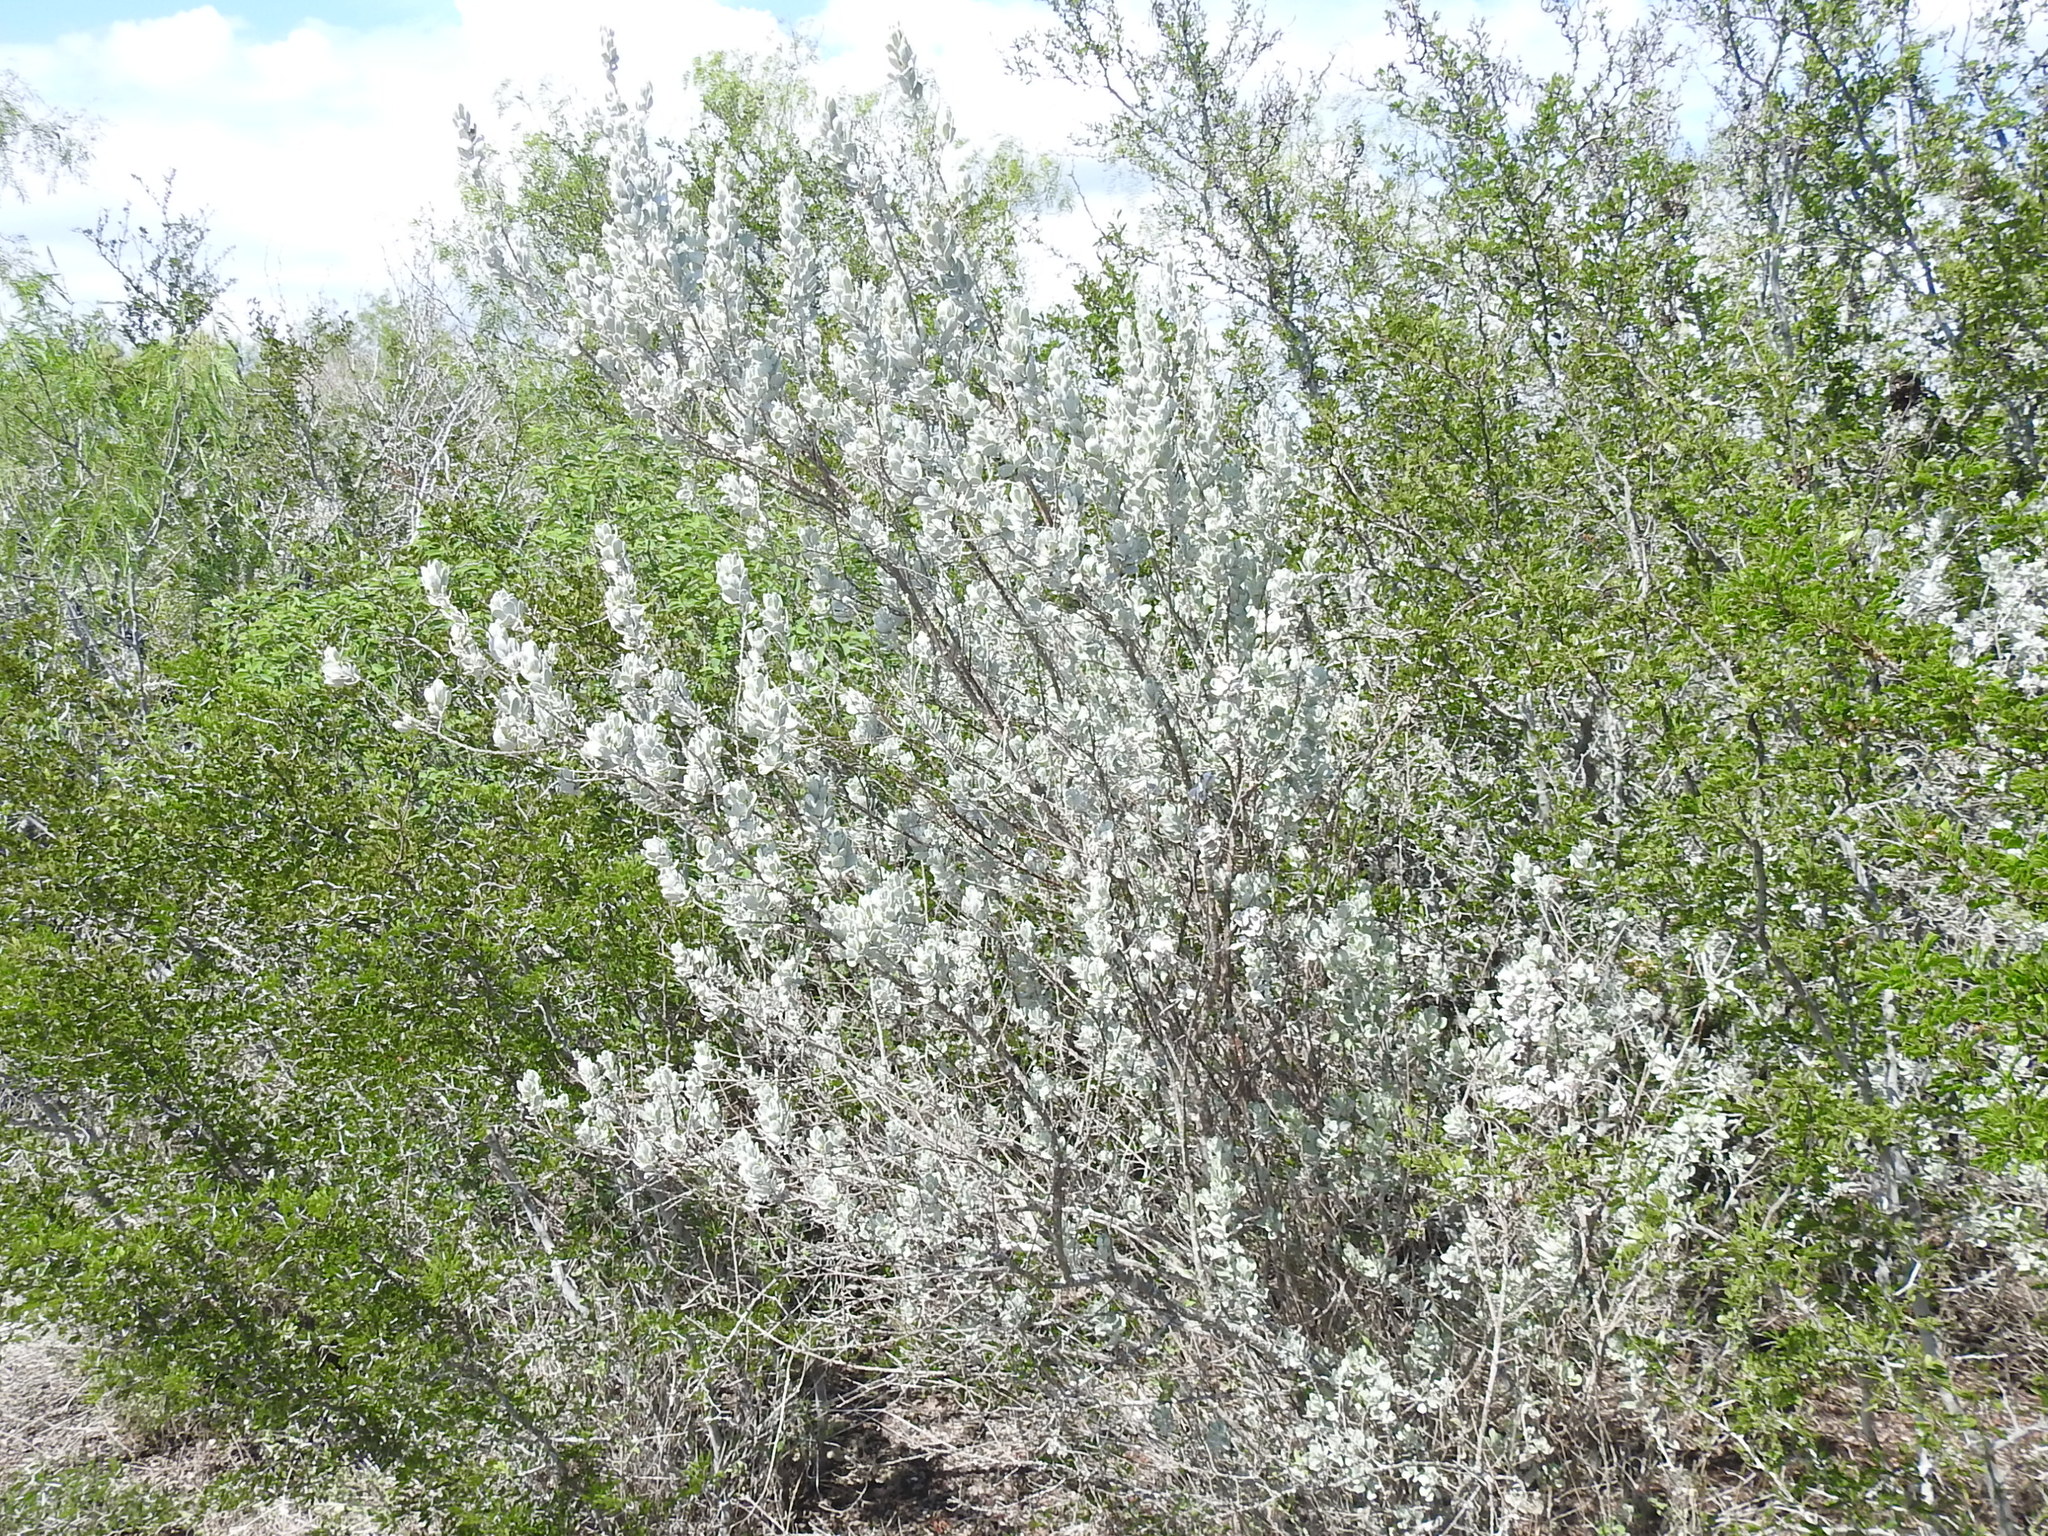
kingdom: Plantae
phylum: Tracheophyta
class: Magnoliopsida
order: Lamiales
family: Scrophulariaceae
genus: Leucophyllum
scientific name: Leucophyllum frutescens
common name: Texas silverleaf
